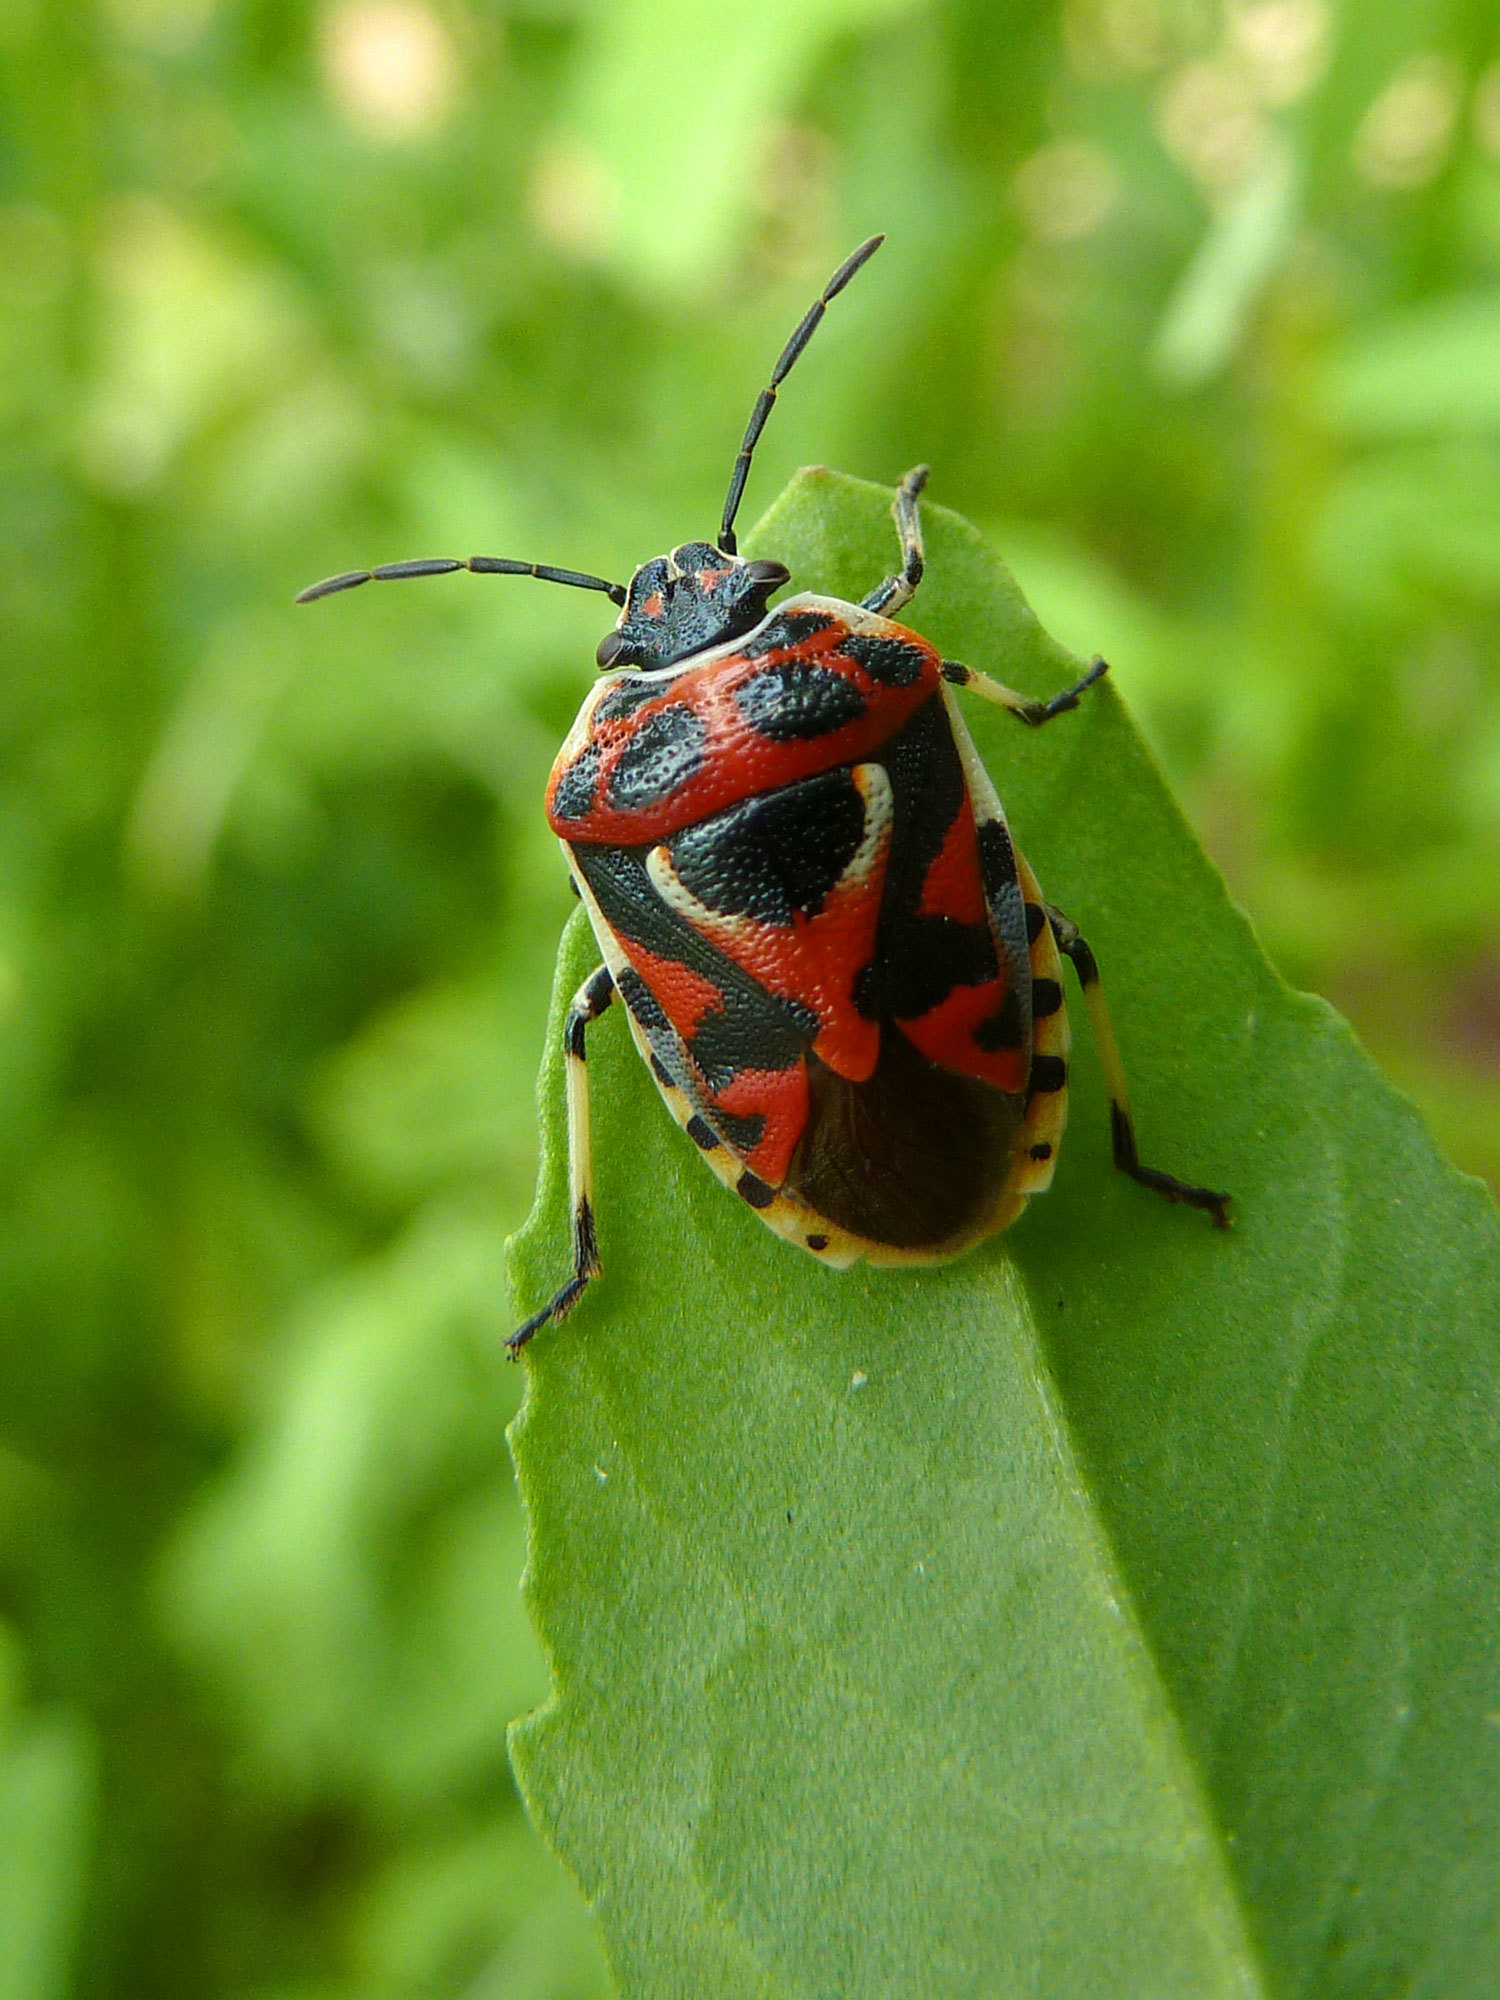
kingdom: Animalia
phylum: Arthropoda
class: Insecta
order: Hemiptera
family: Pentatomidae
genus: Eurydema
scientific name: Eurydema ornata
